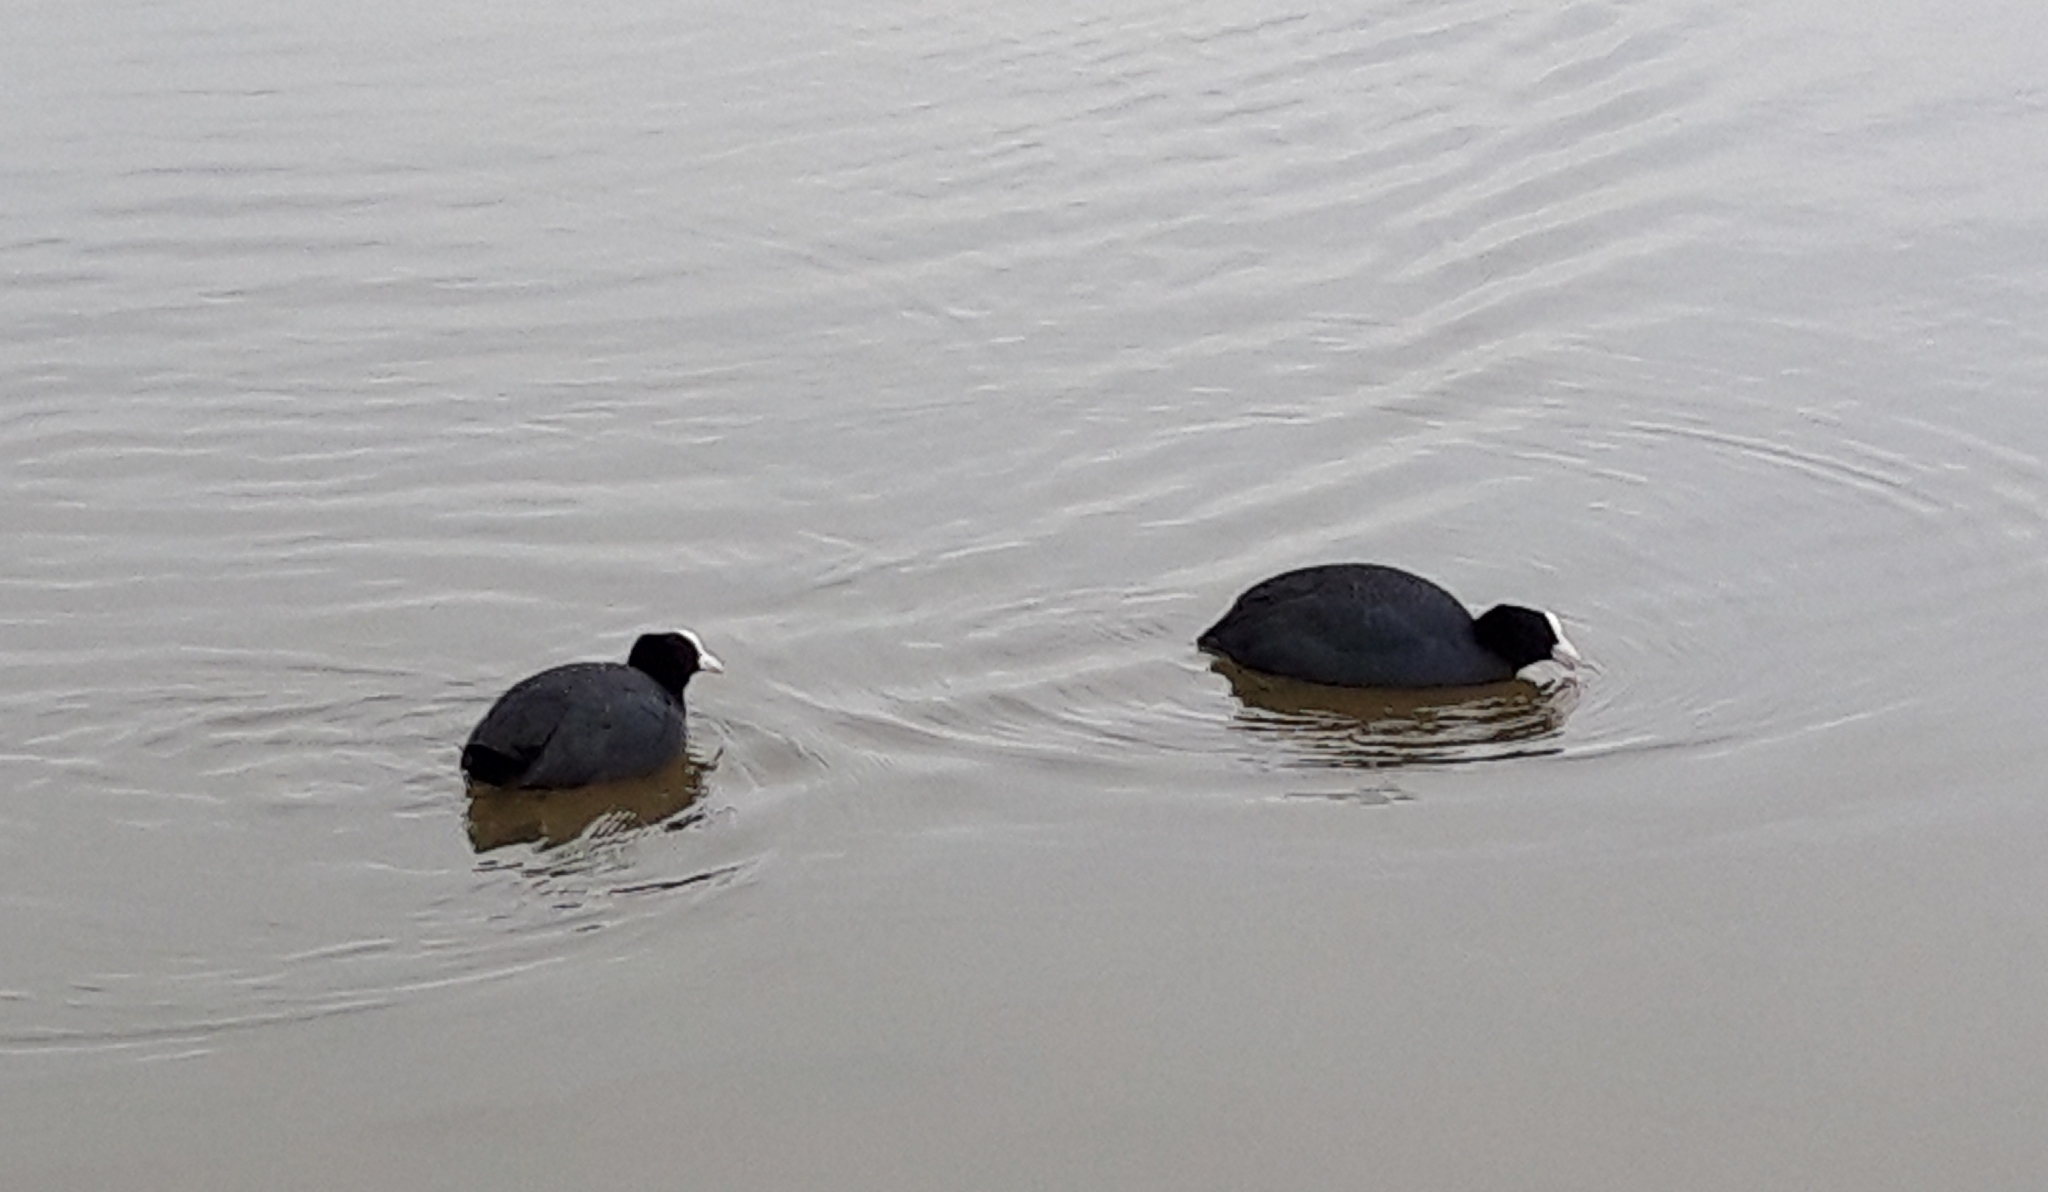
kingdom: Animalia
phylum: Chordata
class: Aves
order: Gruiformes
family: Rallidae
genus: Fulica
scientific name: Fulica atra
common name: Eurasian coot
